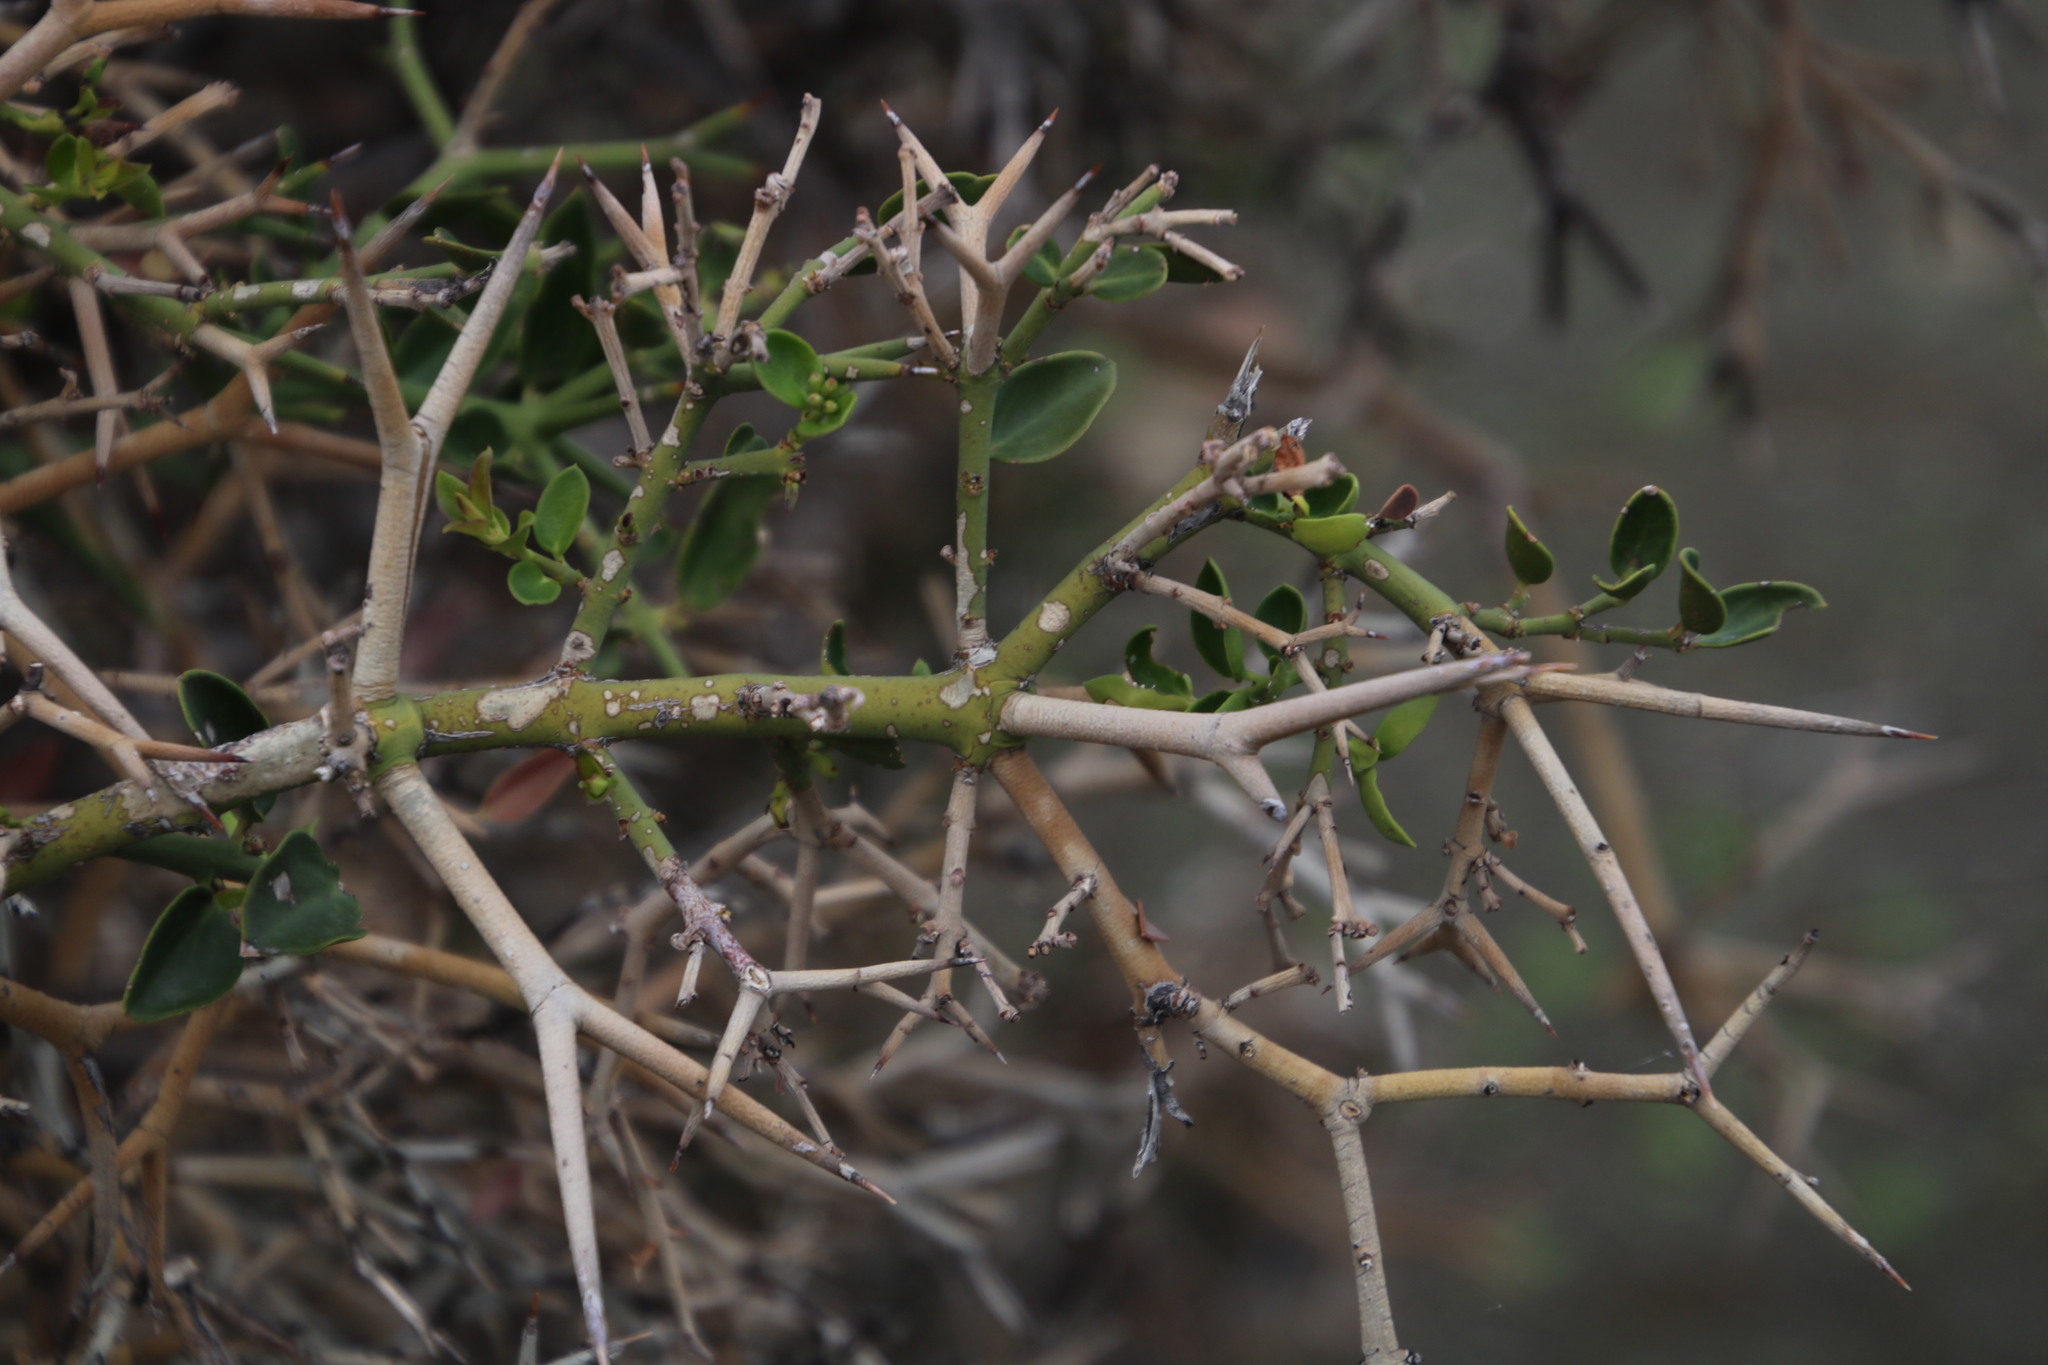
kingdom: Plantae
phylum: Tracheophyta
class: Magnoliopsida
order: Gentianales
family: Apocynaceae
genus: Carissa
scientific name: Carissa haematocarpa
